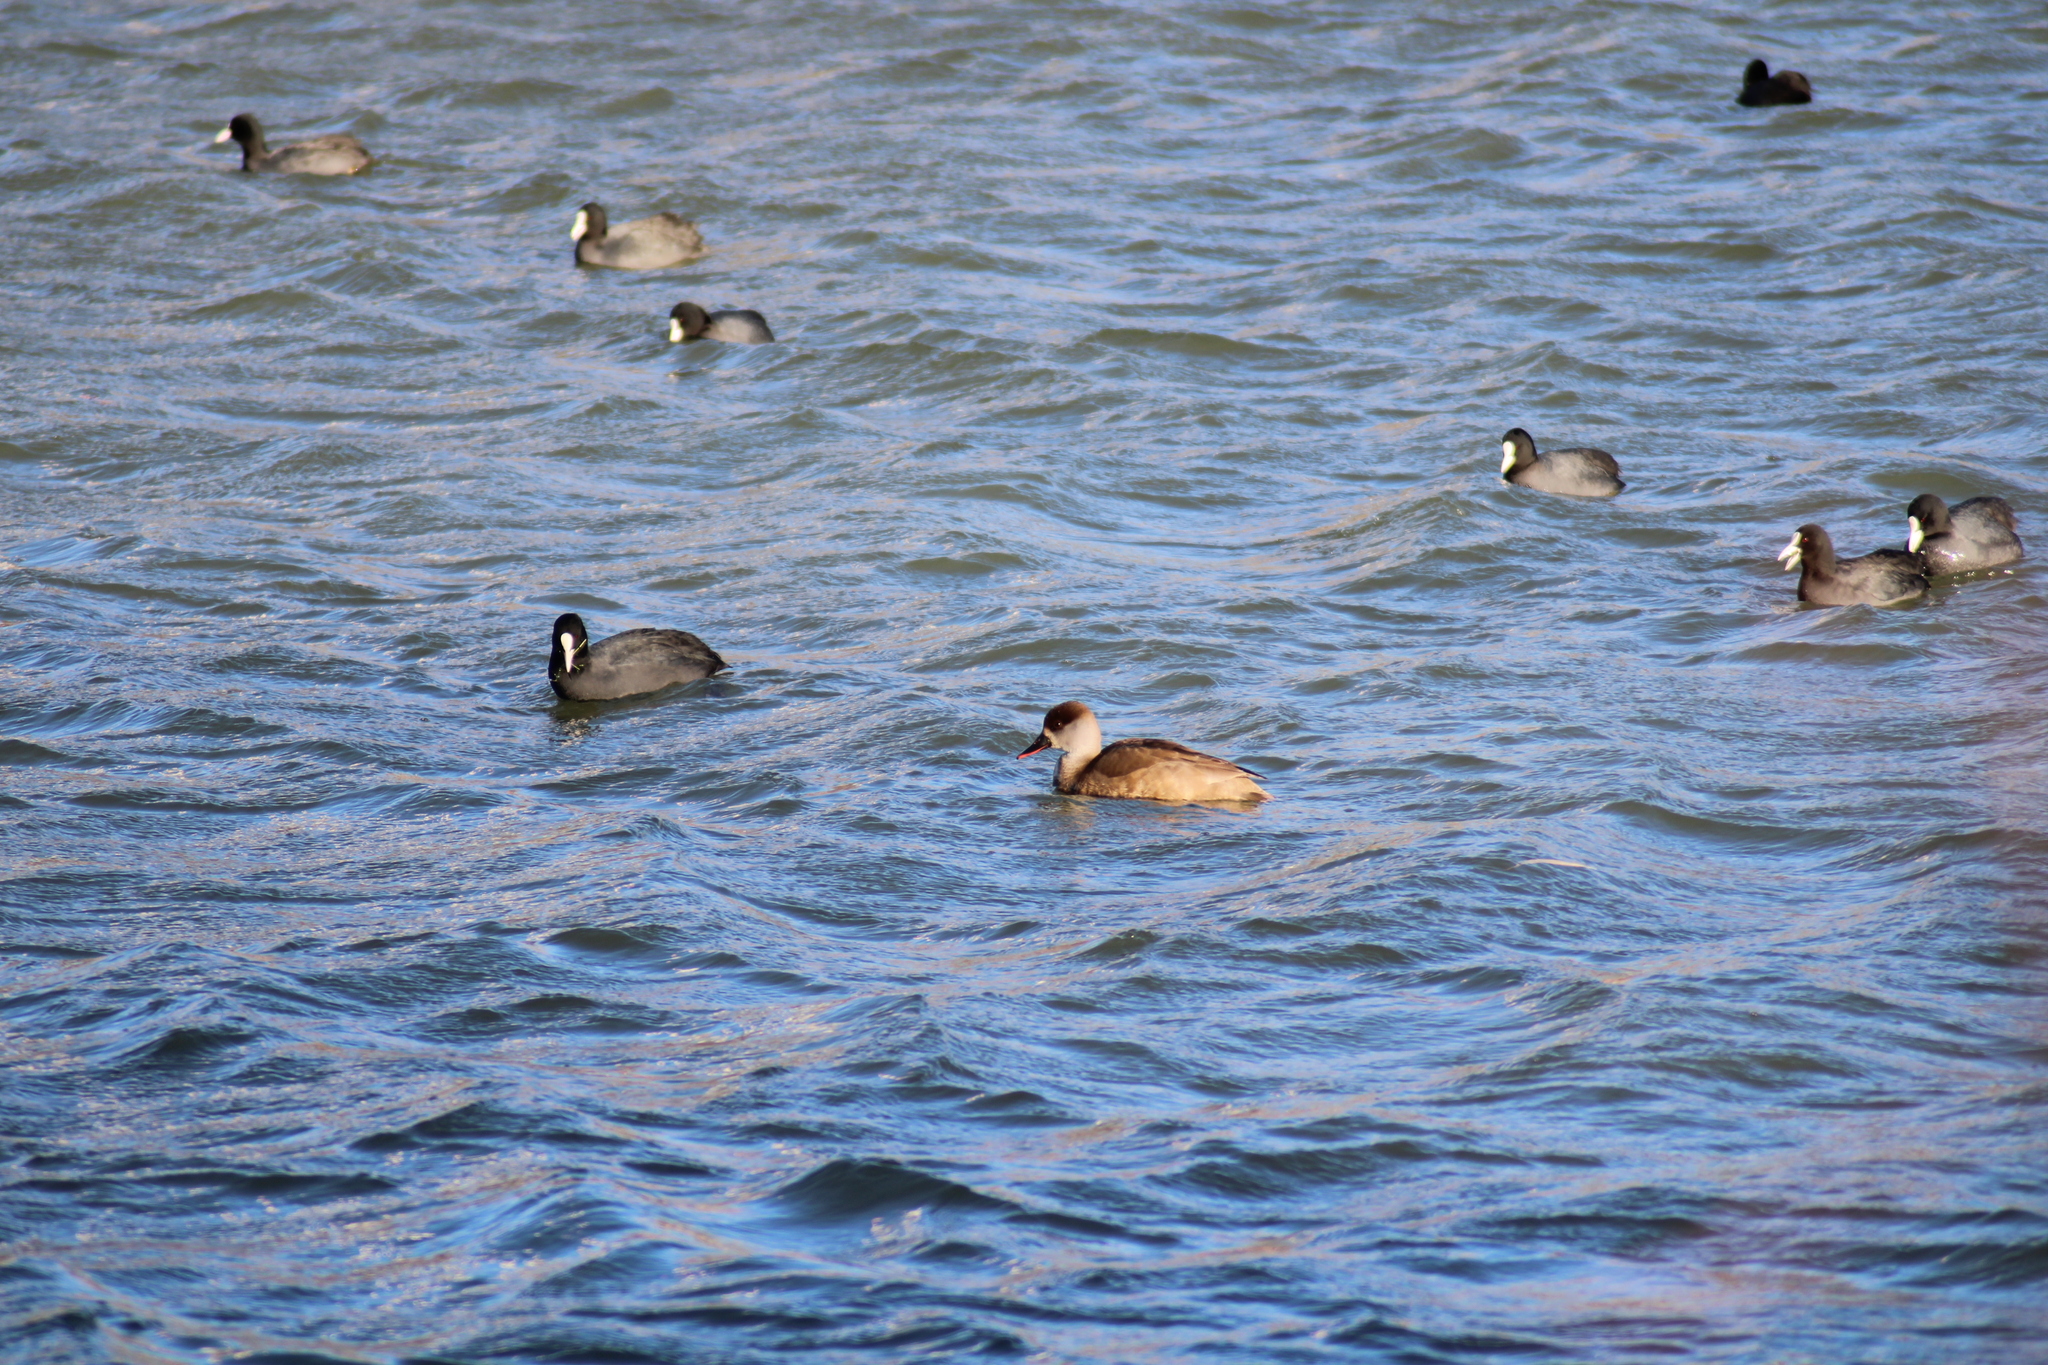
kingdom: Animalia
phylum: Chordata
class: Aves
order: Anseriformes
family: Anatidae
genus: Netta
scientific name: Netta rufina
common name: Red-crested pochard
